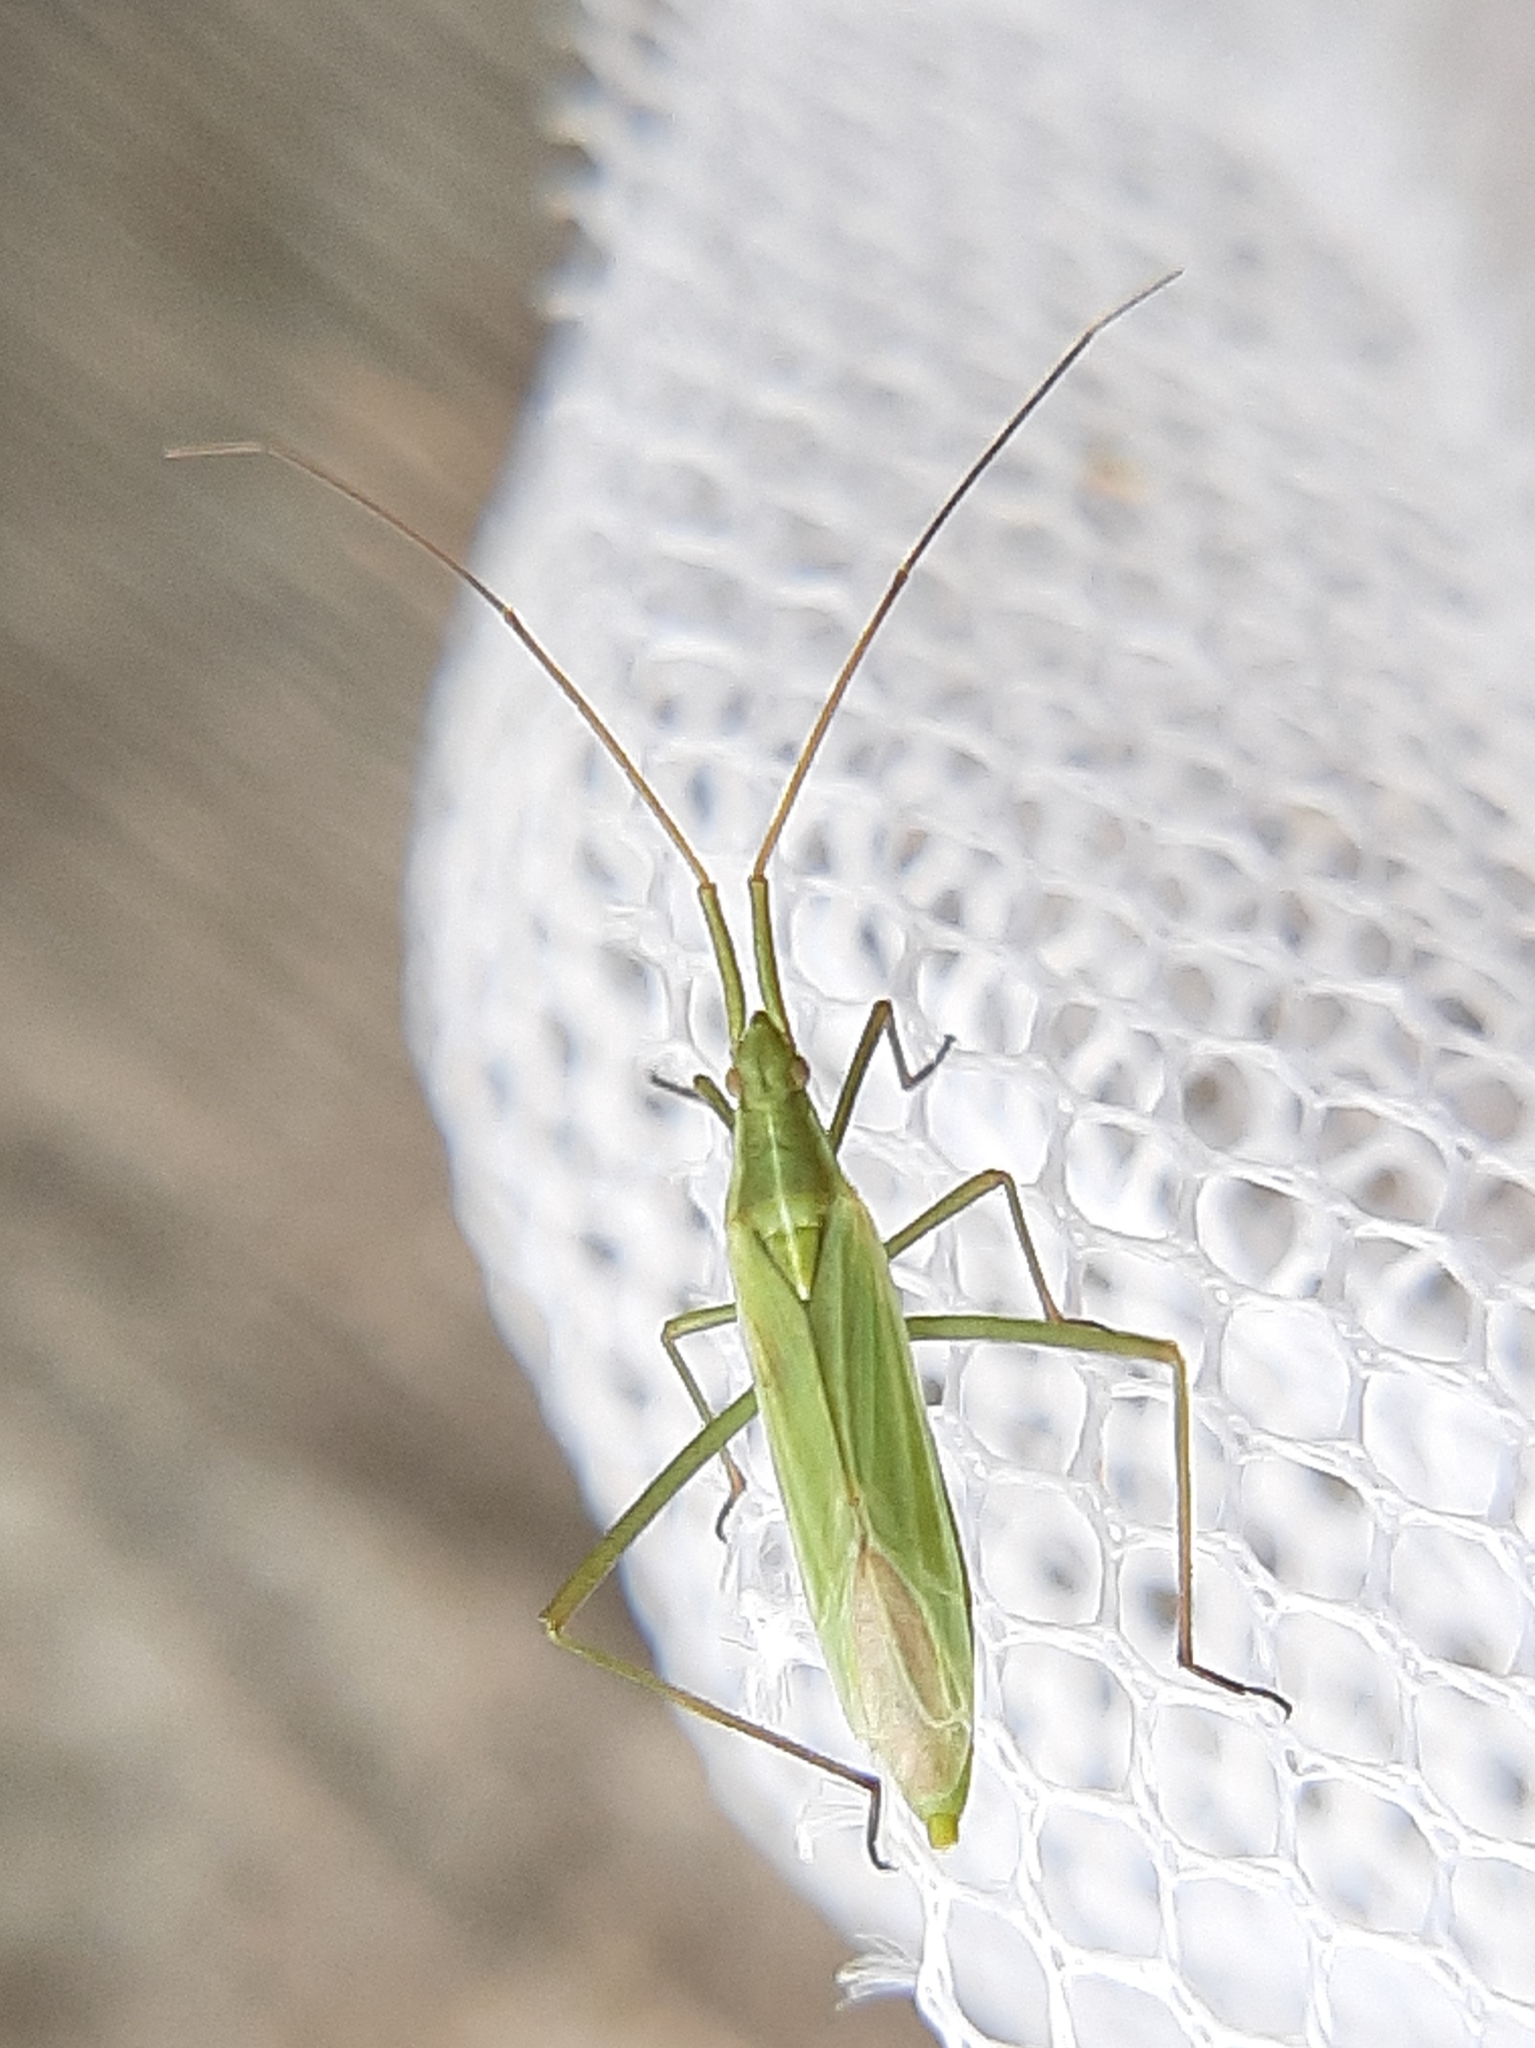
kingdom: Animalia
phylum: Arthropoda
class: Insecta
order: Hemiptera
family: Miridae
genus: Megaloceroea
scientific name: Megaloceroea recticornis
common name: Plant bug
